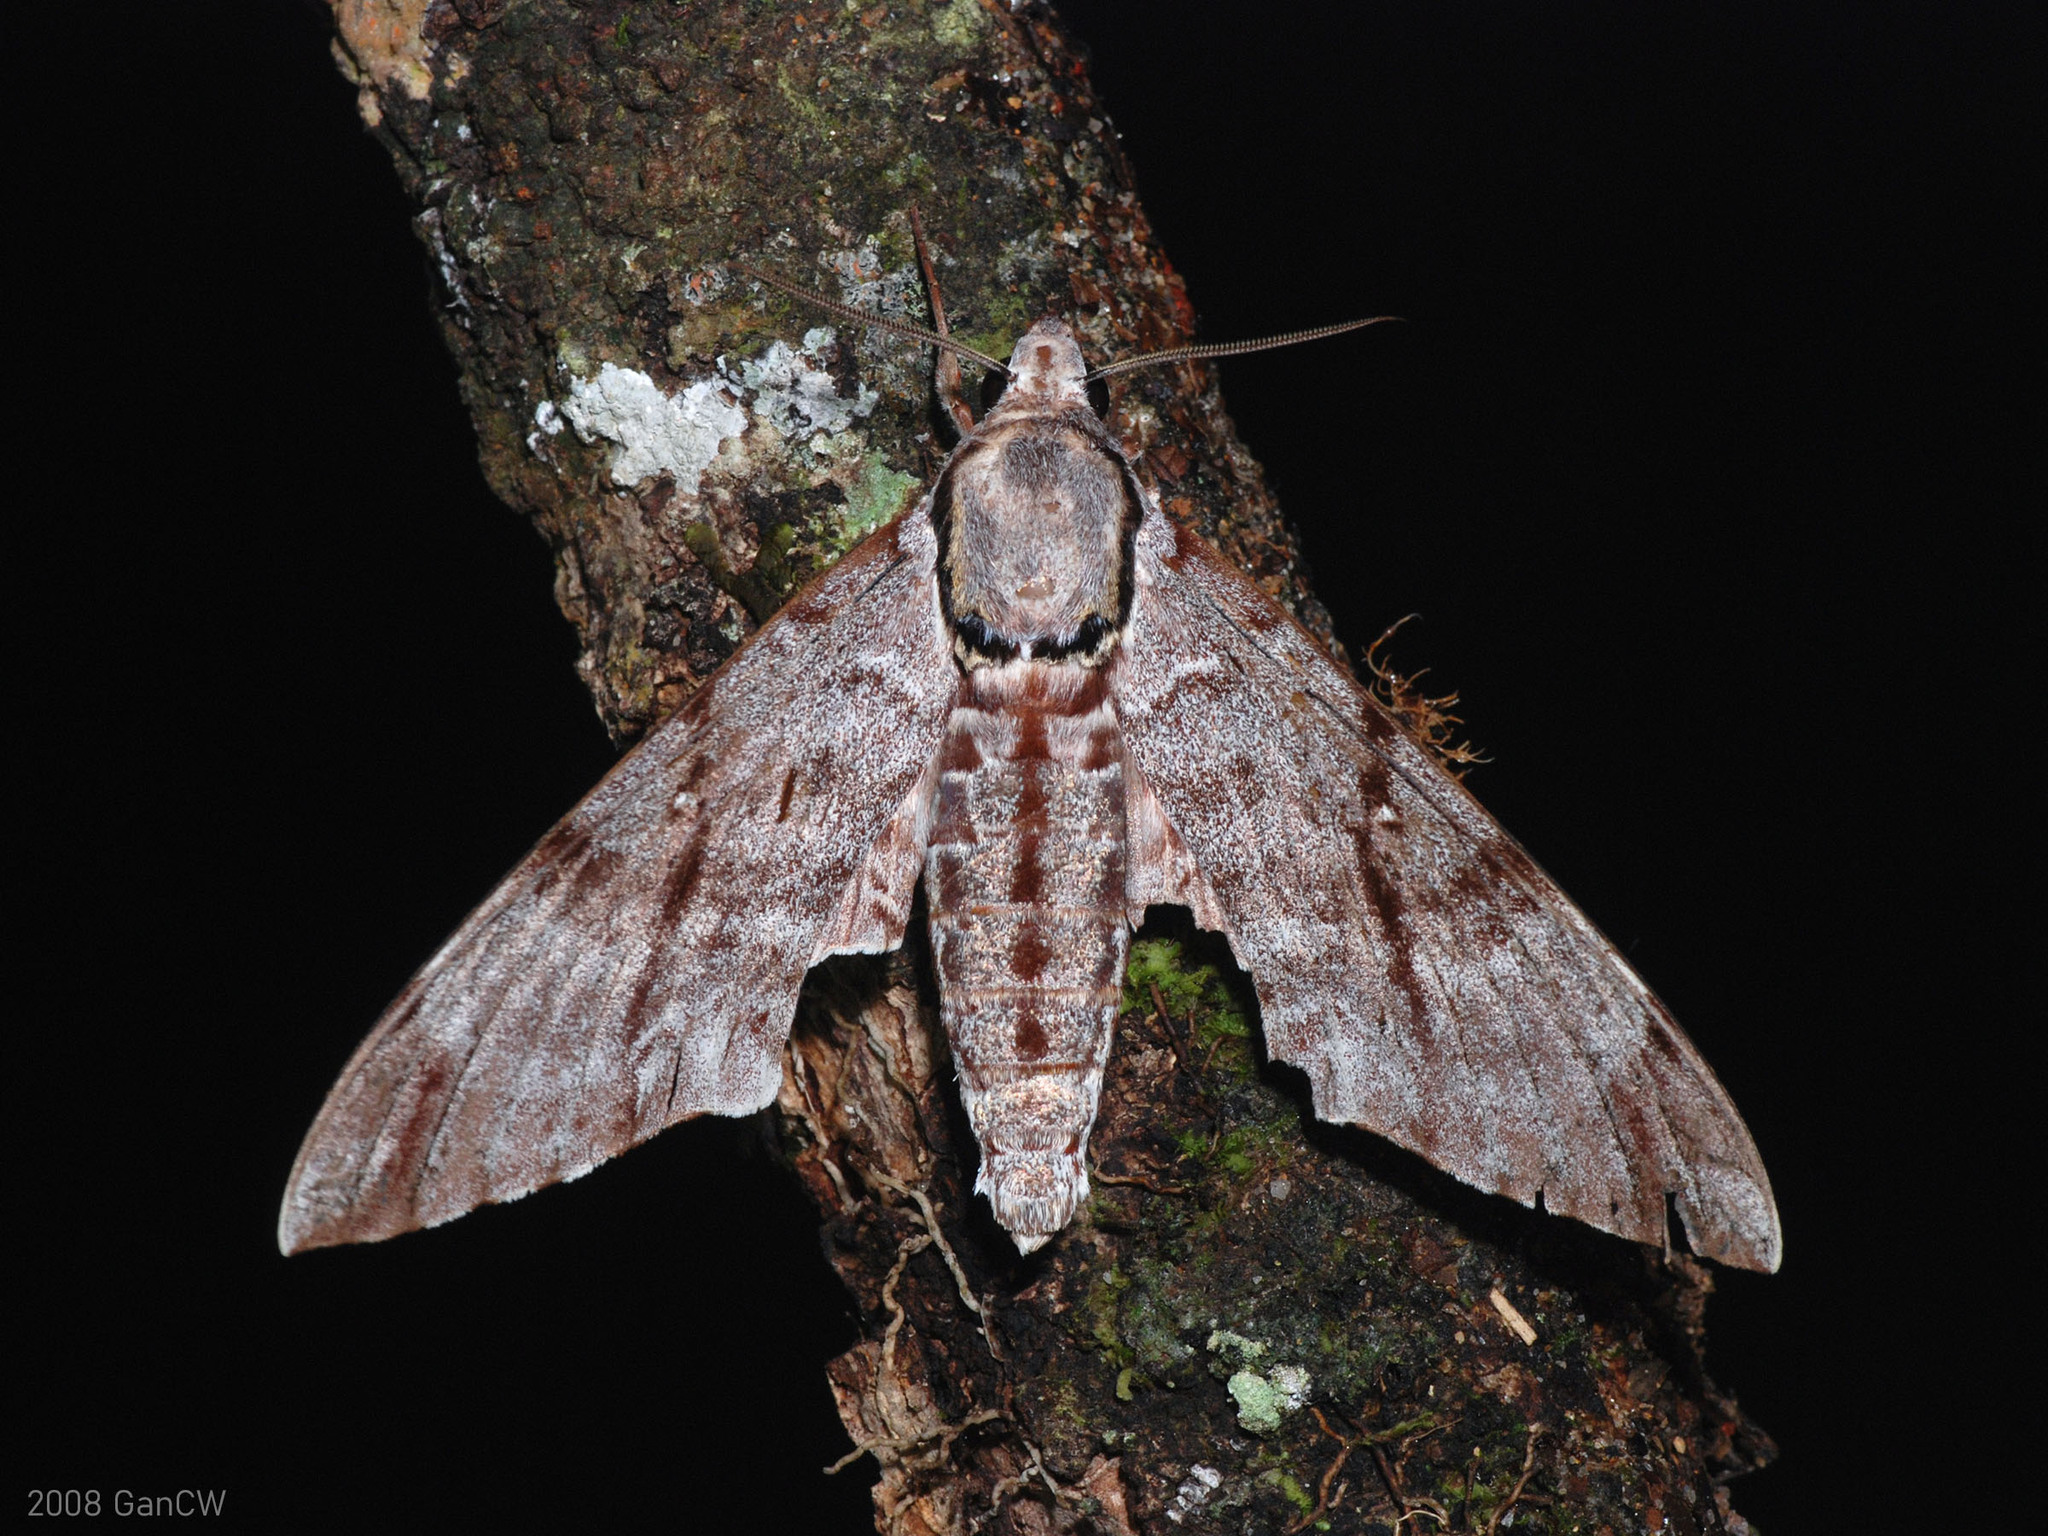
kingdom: Animalia
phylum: Arthropoda
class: Insecta
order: Lepidoptera
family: Sphingidae
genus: Notonagemia
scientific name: Notonagemia analis
